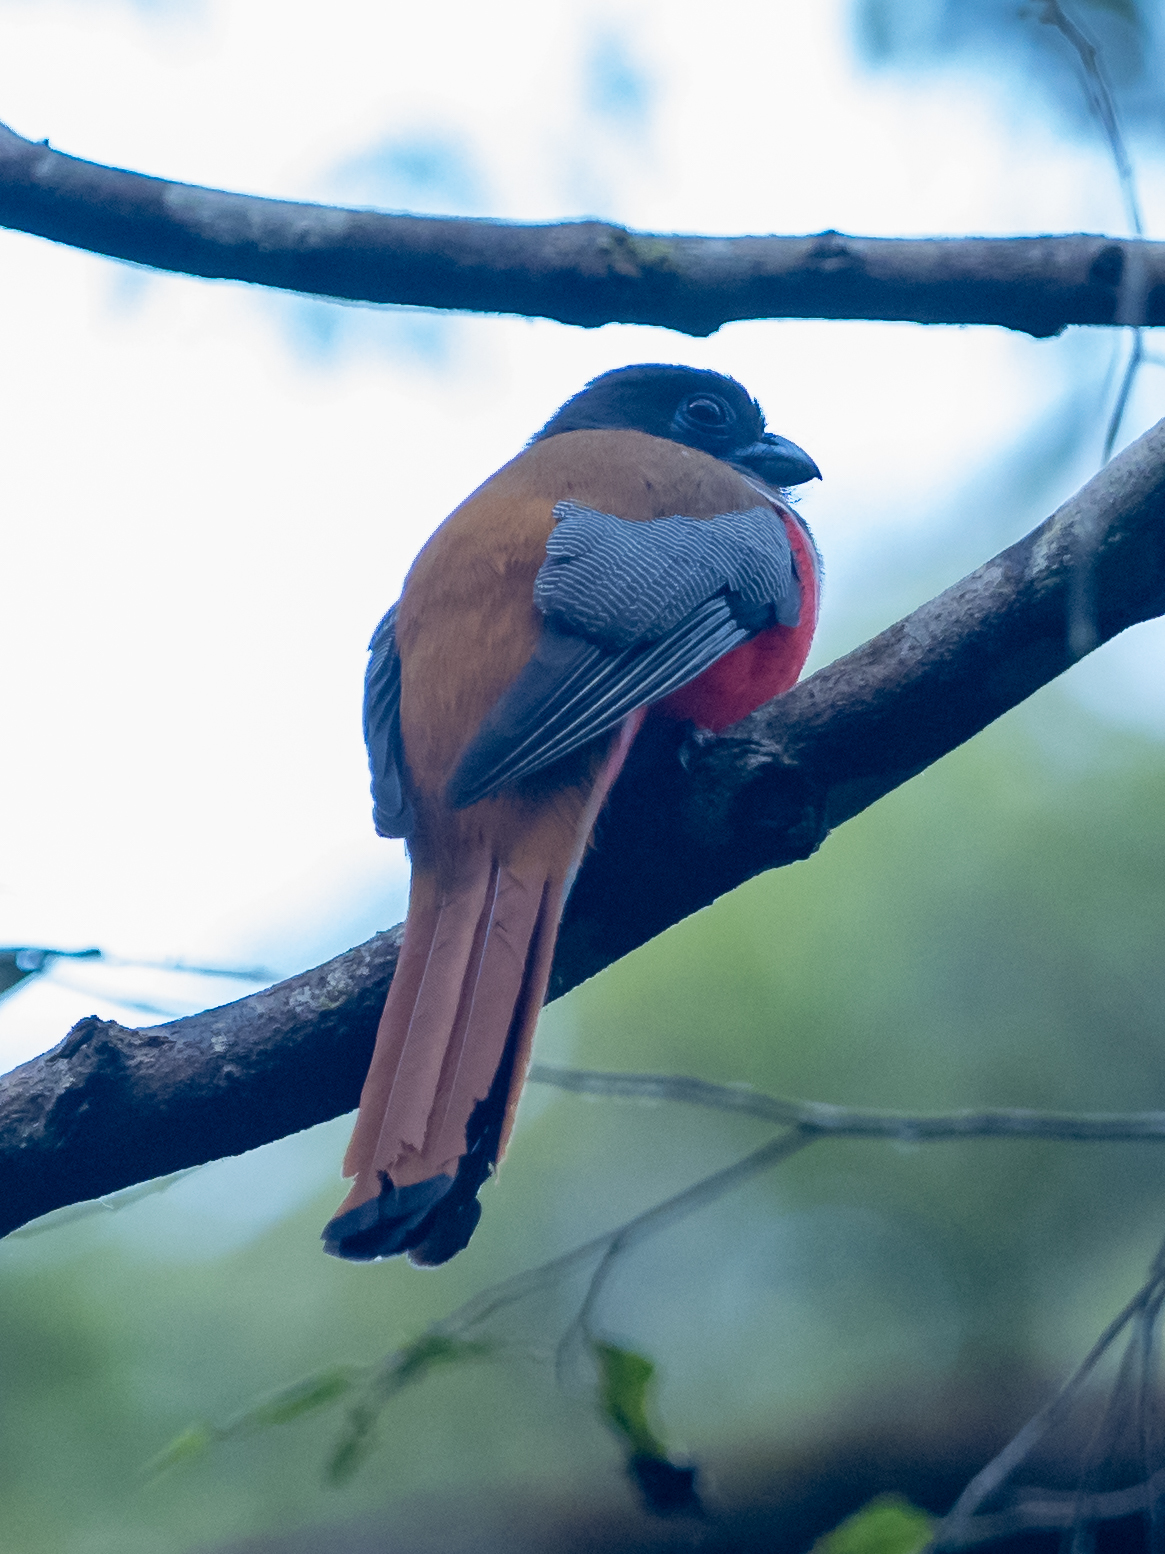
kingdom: Animalia
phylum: Chordata
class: Aves
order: Trogoniformes
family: Trogonidae
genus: Harpactes
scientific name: Harpactes fasciatus
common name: Malabar trogon
